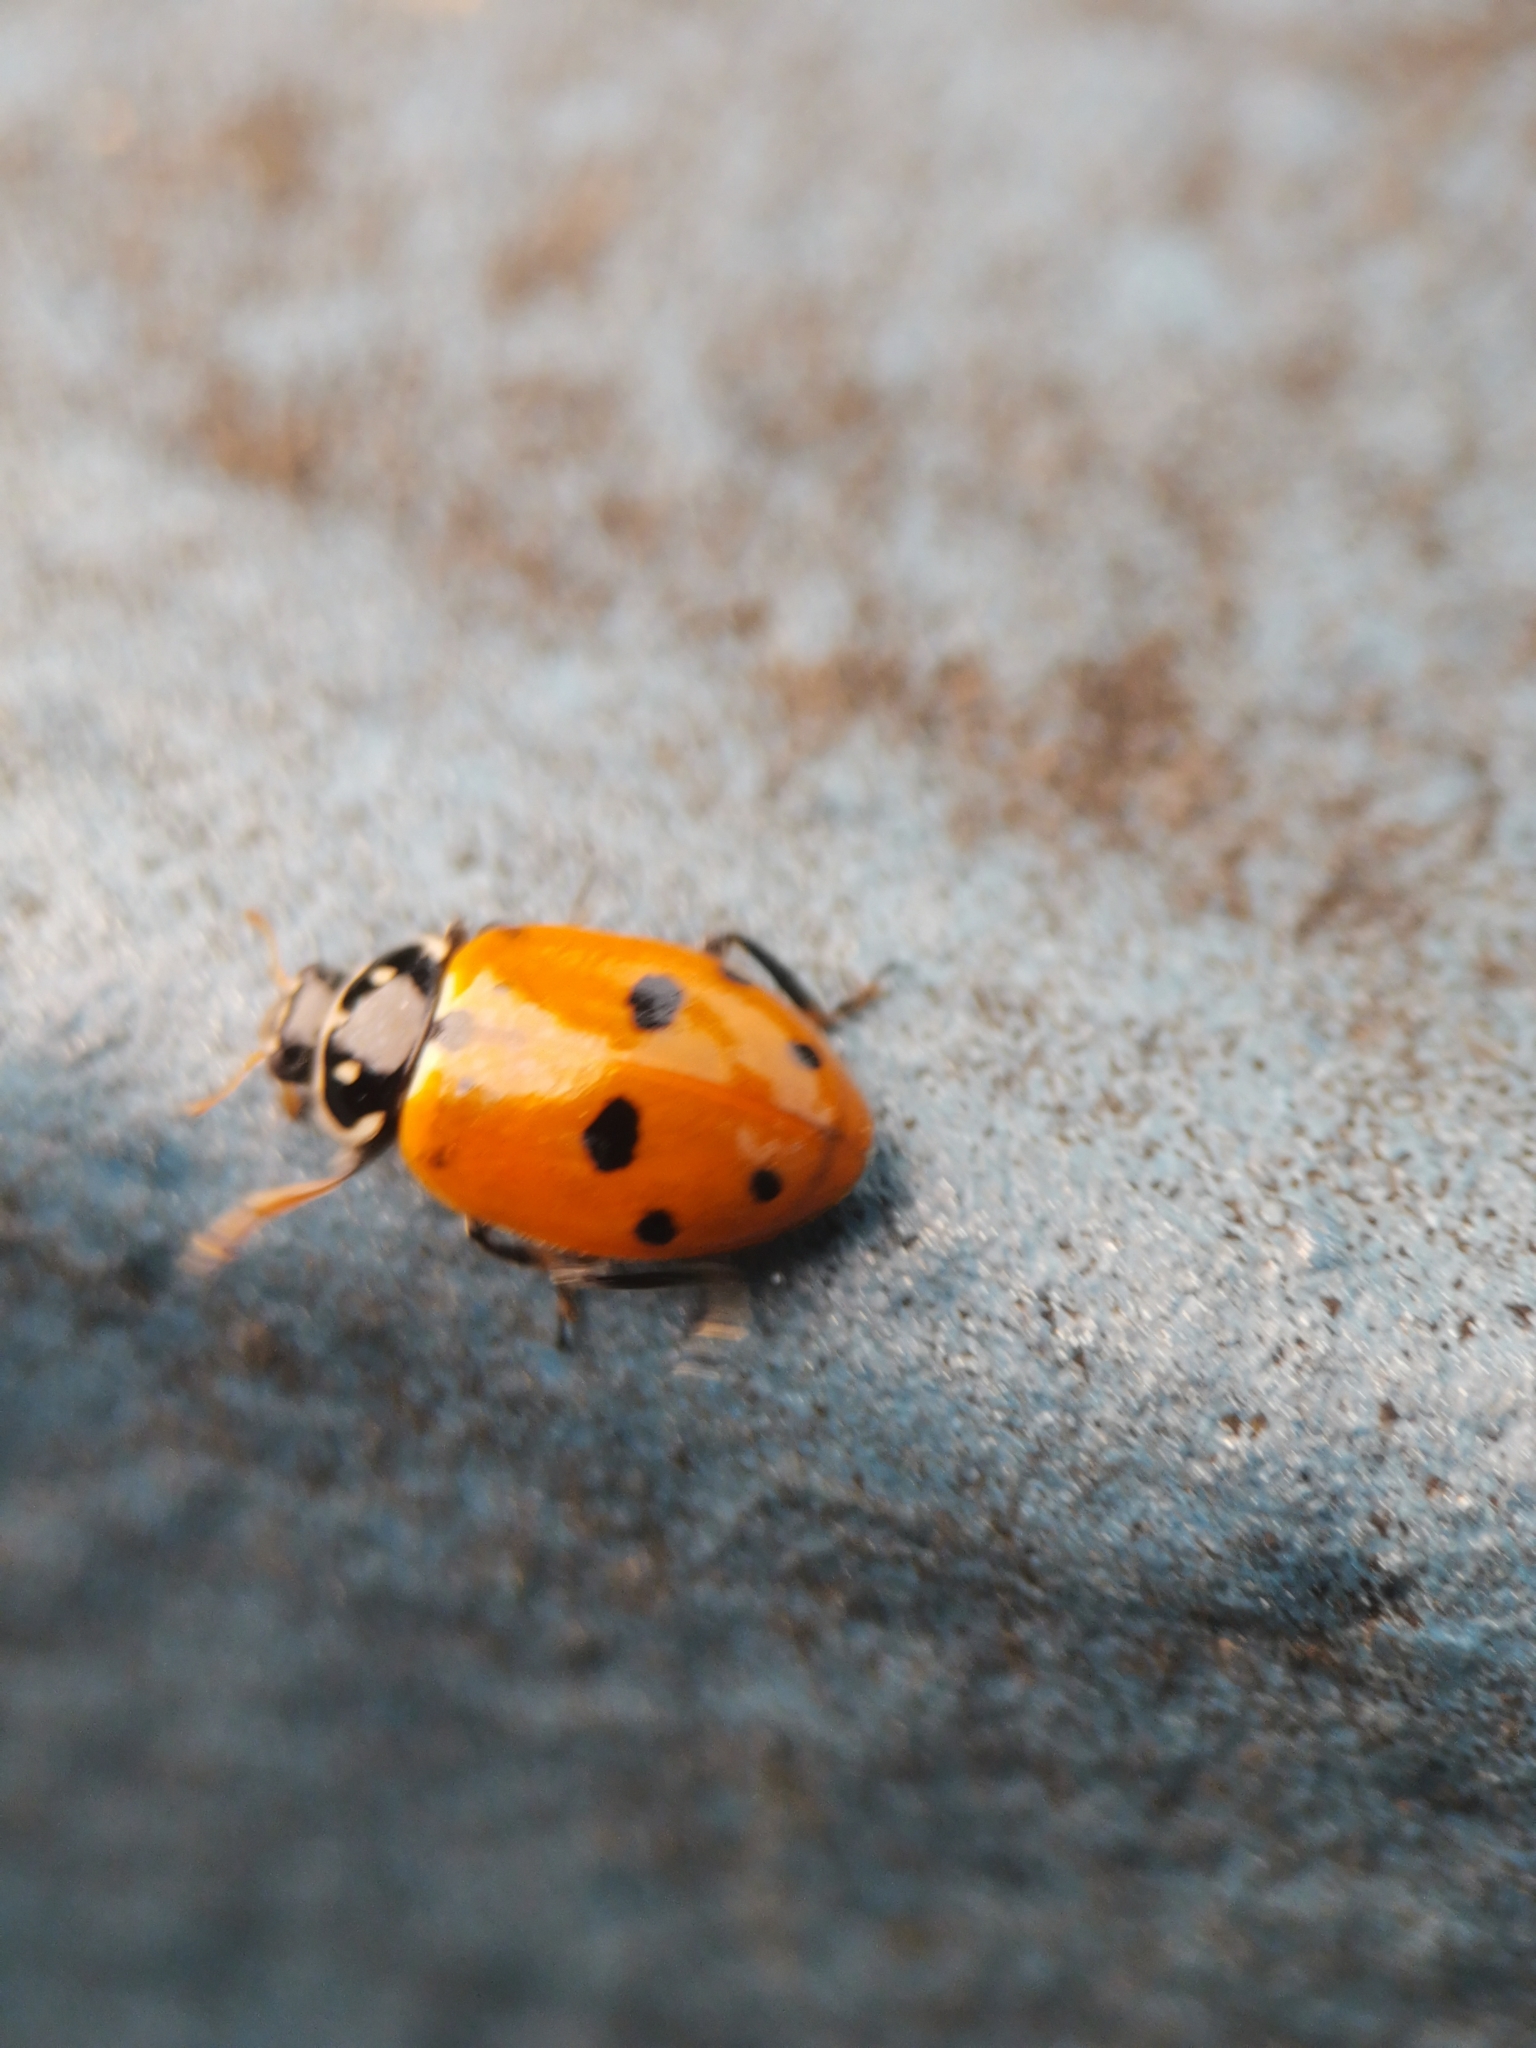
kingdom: Animalia
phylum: Arthropoda
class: Insecta
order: Coleoptera
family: Coccinellidae
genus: Hippodamia
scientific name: Hippodamia variegata
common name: Ladybird beetle
